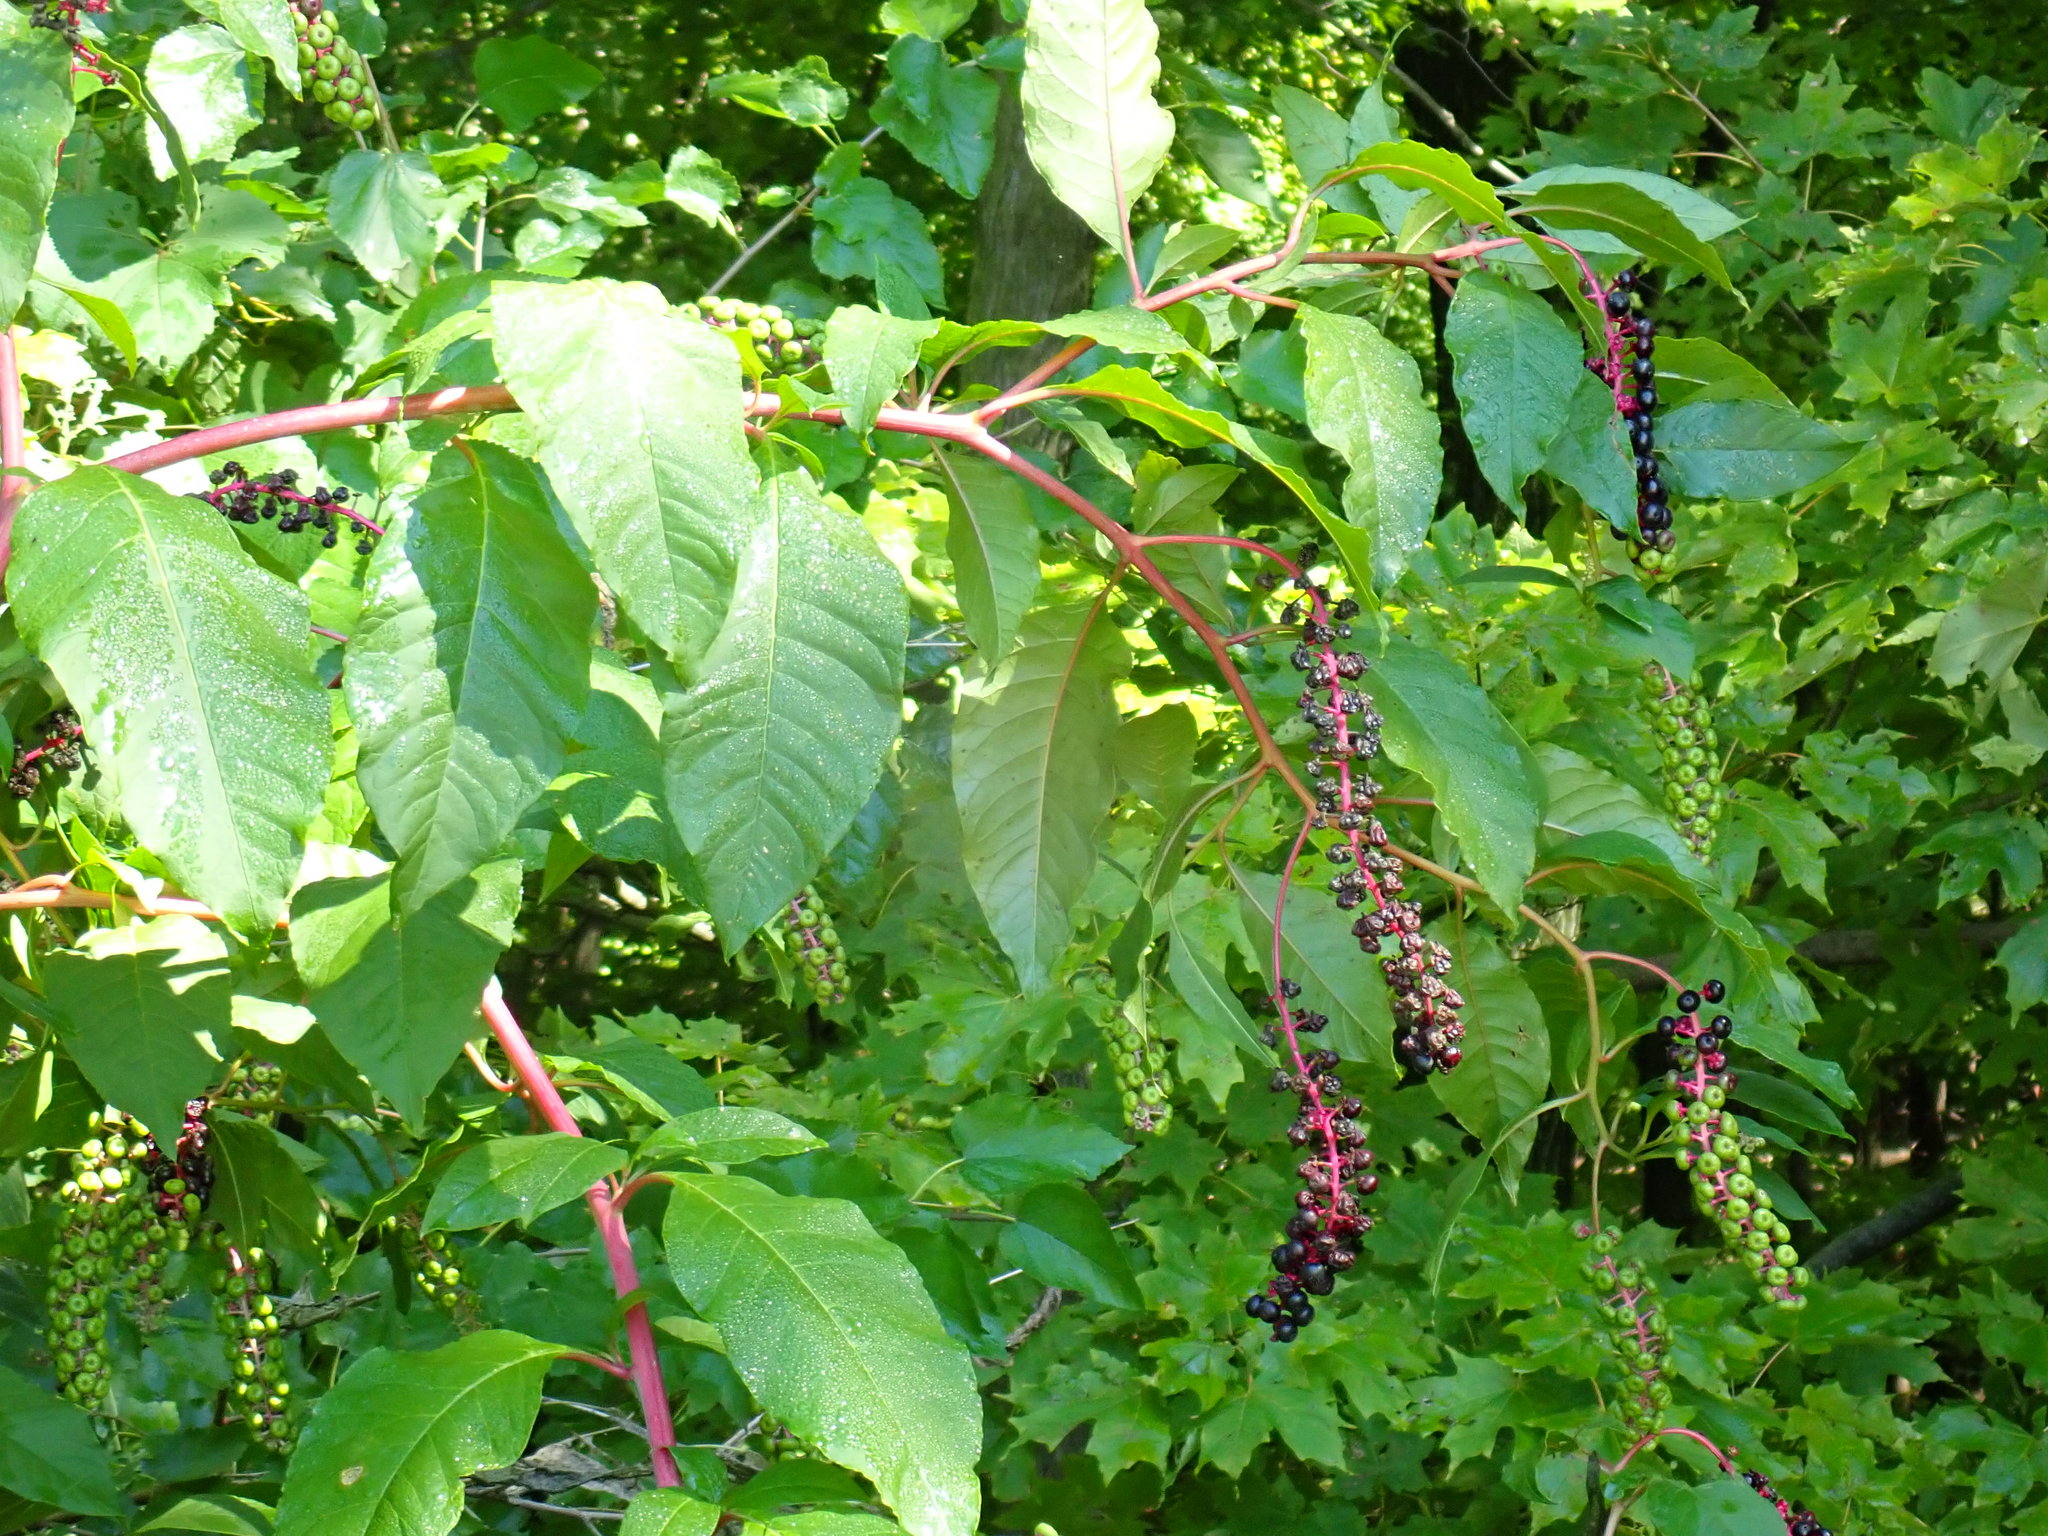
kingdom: Plantae
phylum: Tracheophyta
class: Magnoliopsida
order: Caryophyllales
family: Phytolaccaceae
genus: Phytolacca
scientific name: Phytolacca americana
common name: American pokeweed
